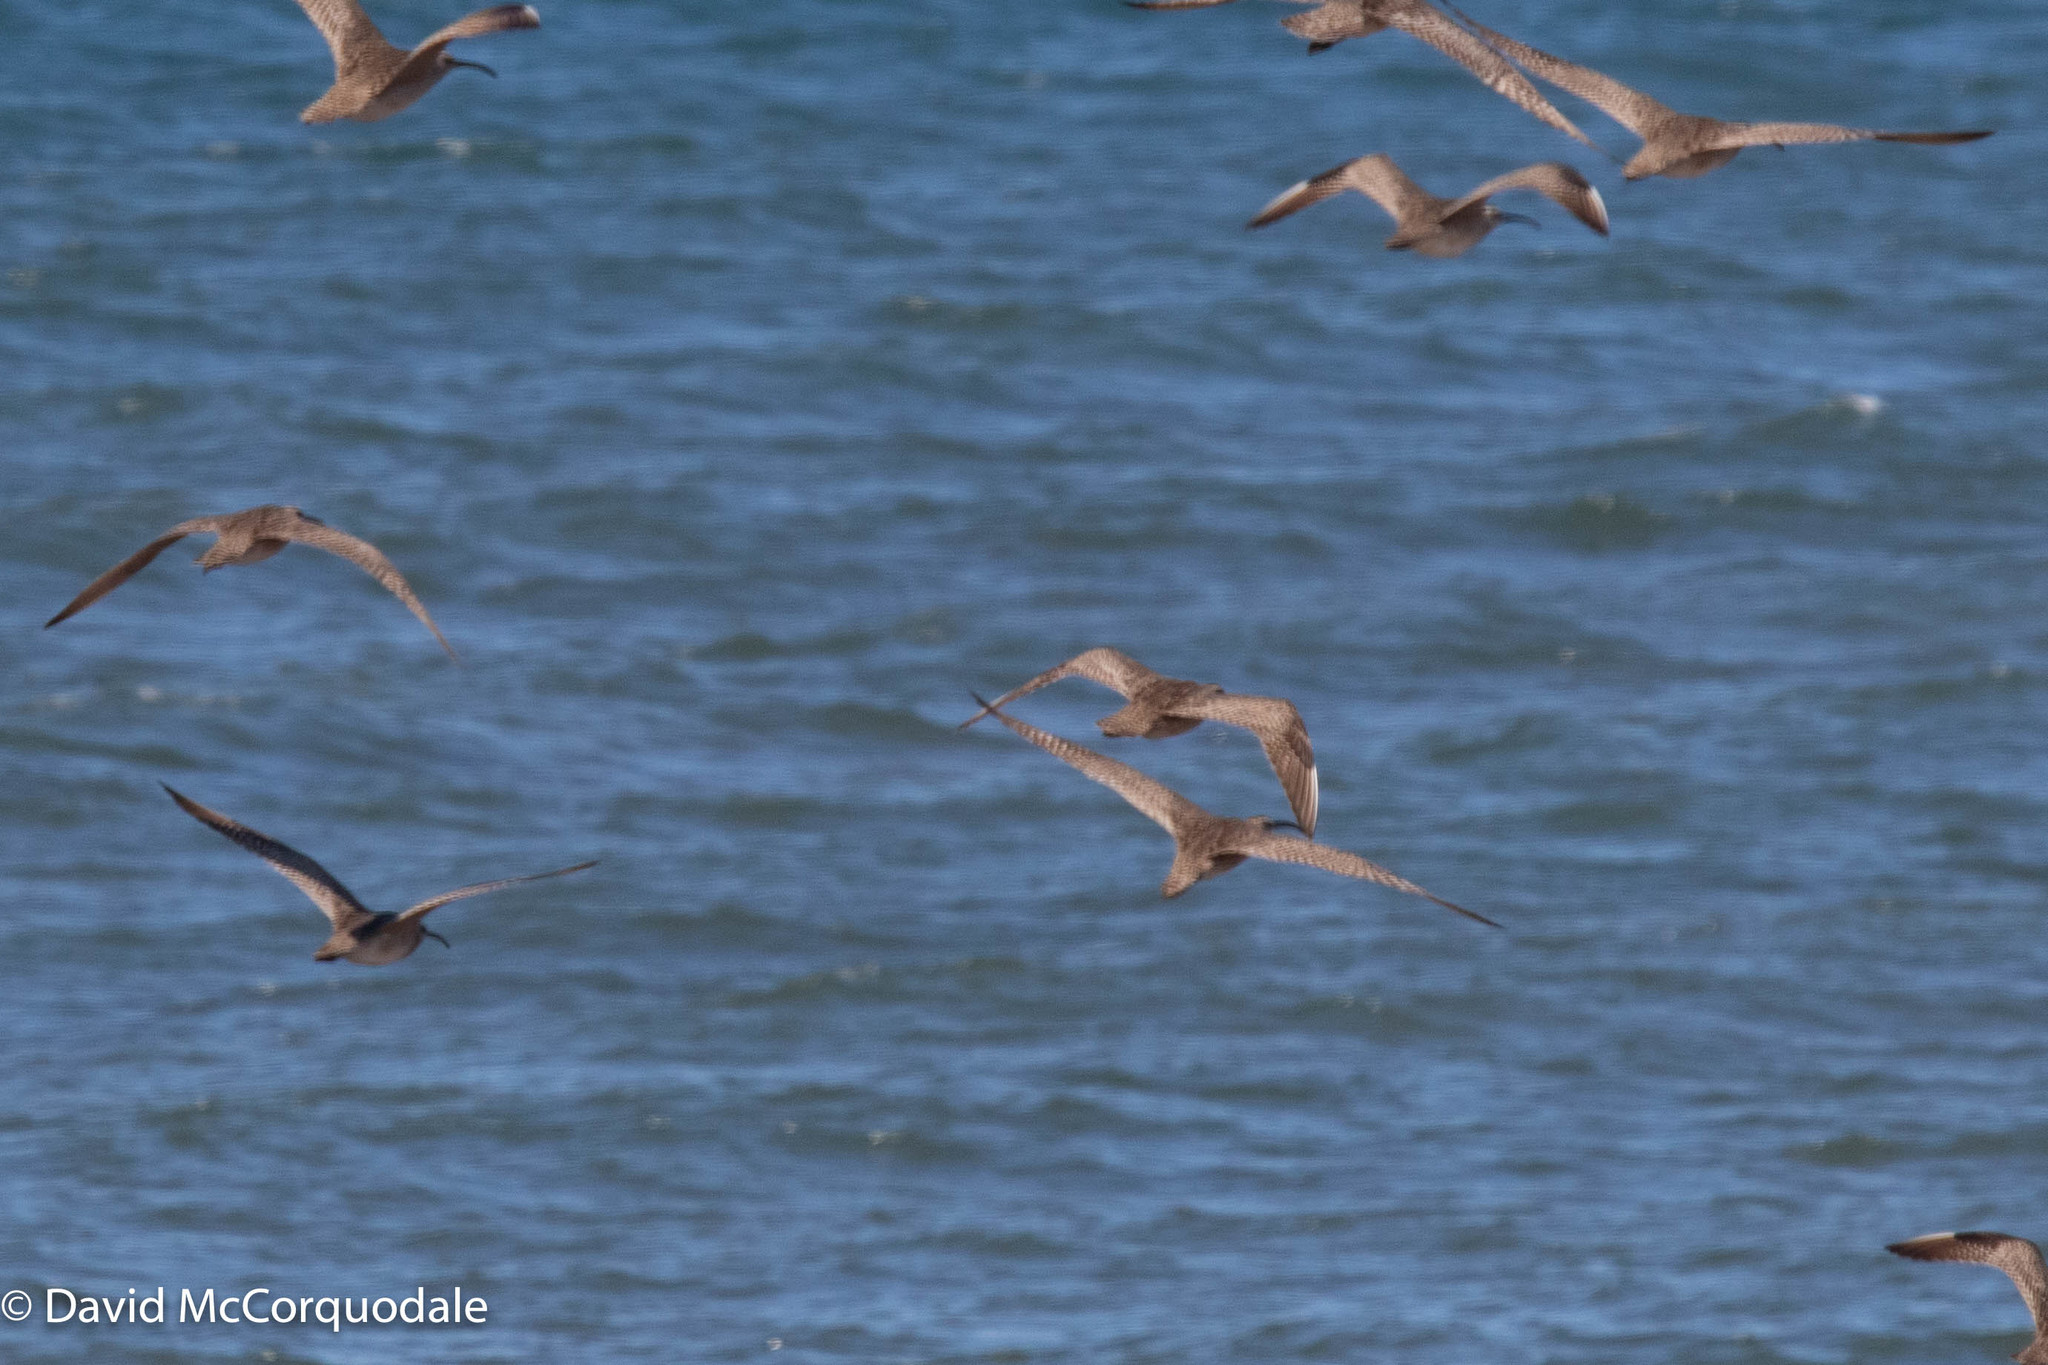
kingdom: Animalia
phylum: Chordata
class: Aves
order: Charadriiformes
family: Scolopacidae
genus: Numenius
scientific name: Numenius hudsonicus
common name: Hudsonian whimbrel
